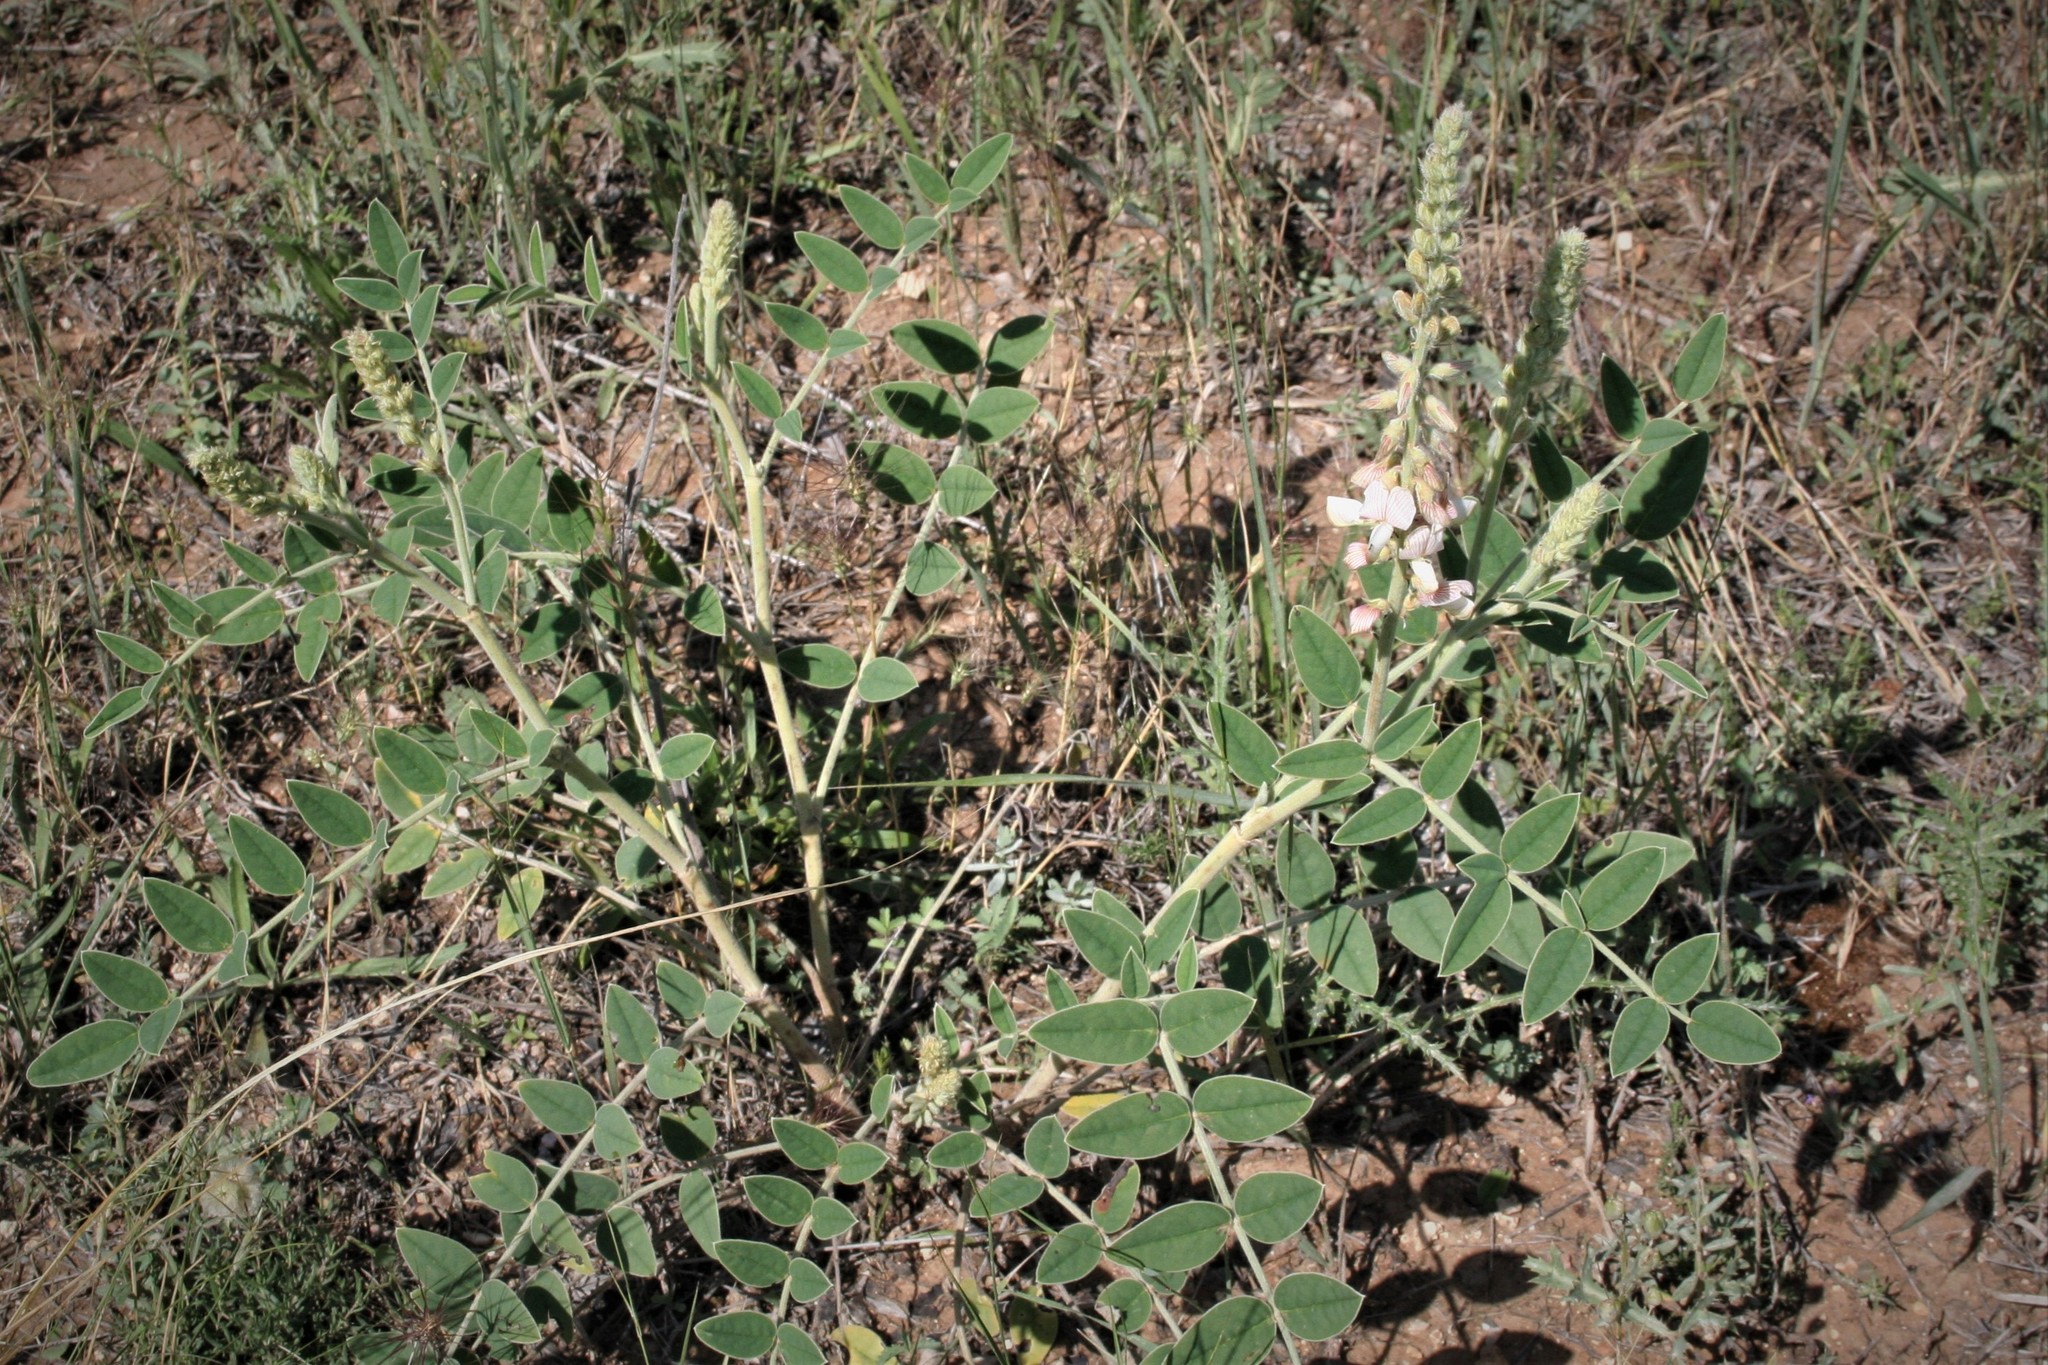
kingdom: Plantae
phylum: Tracheophyta
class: Magnoliopsida
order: Fabales
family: Fabaceae
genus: Onobrychis
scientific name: Onobrychis hypargyrea
